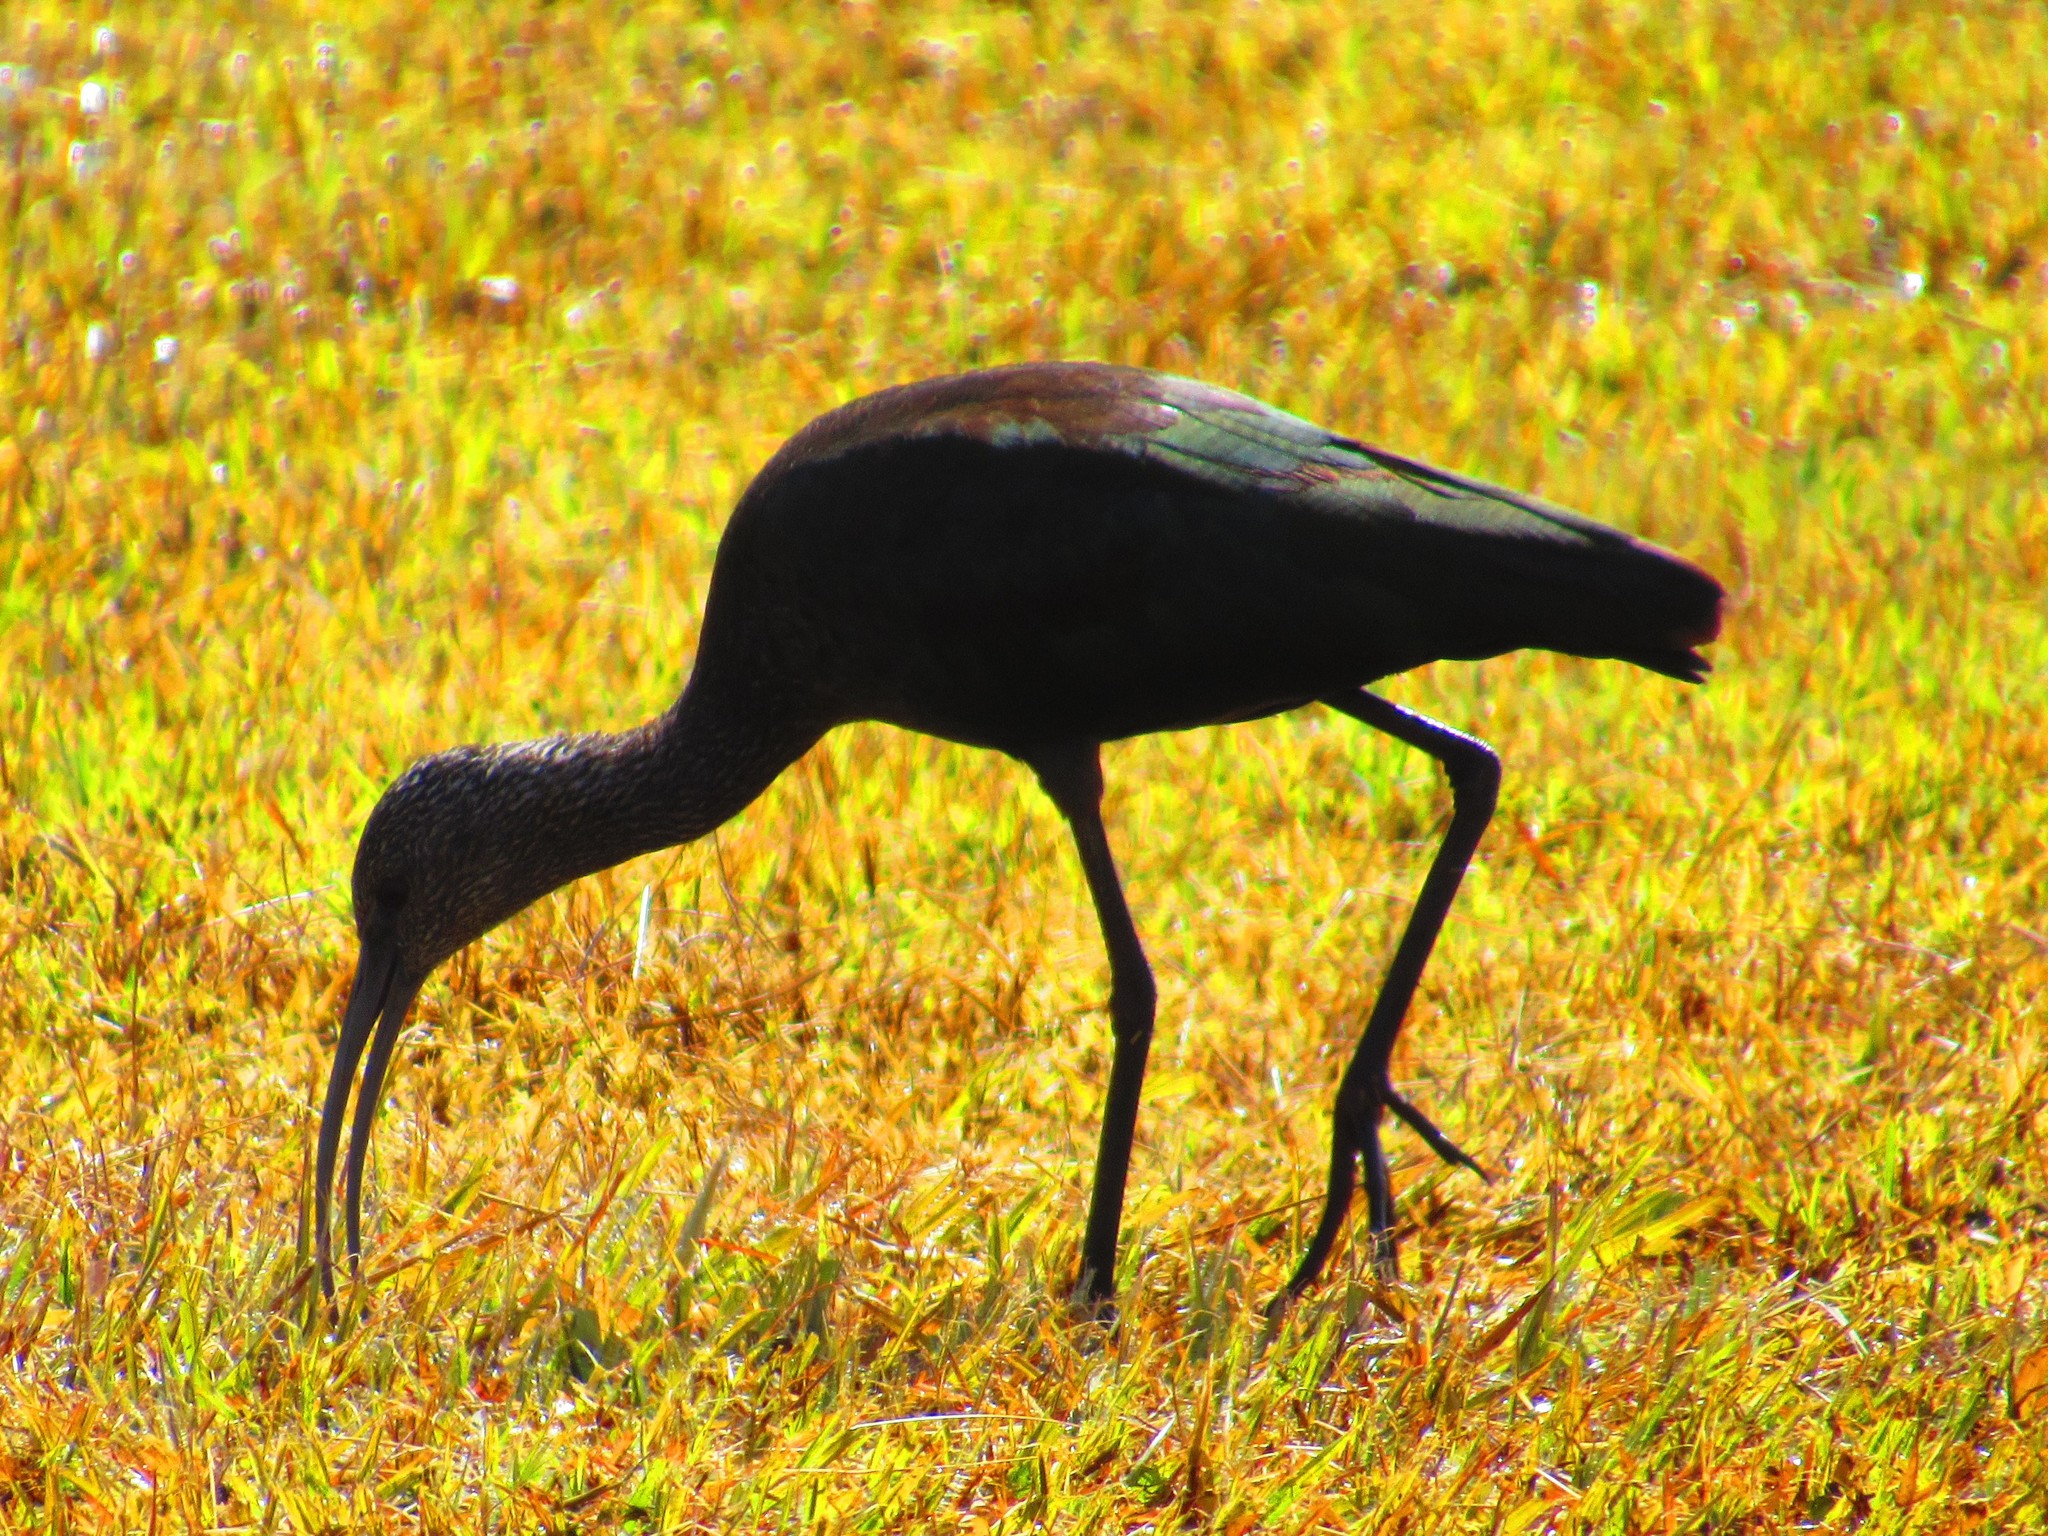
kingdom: Animalia
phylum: Chordata
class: Aves
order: Pelecaniformes
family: Threskiornithidae
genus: Plegadis
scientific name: Plegadis chihi
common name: White-faced ibis
